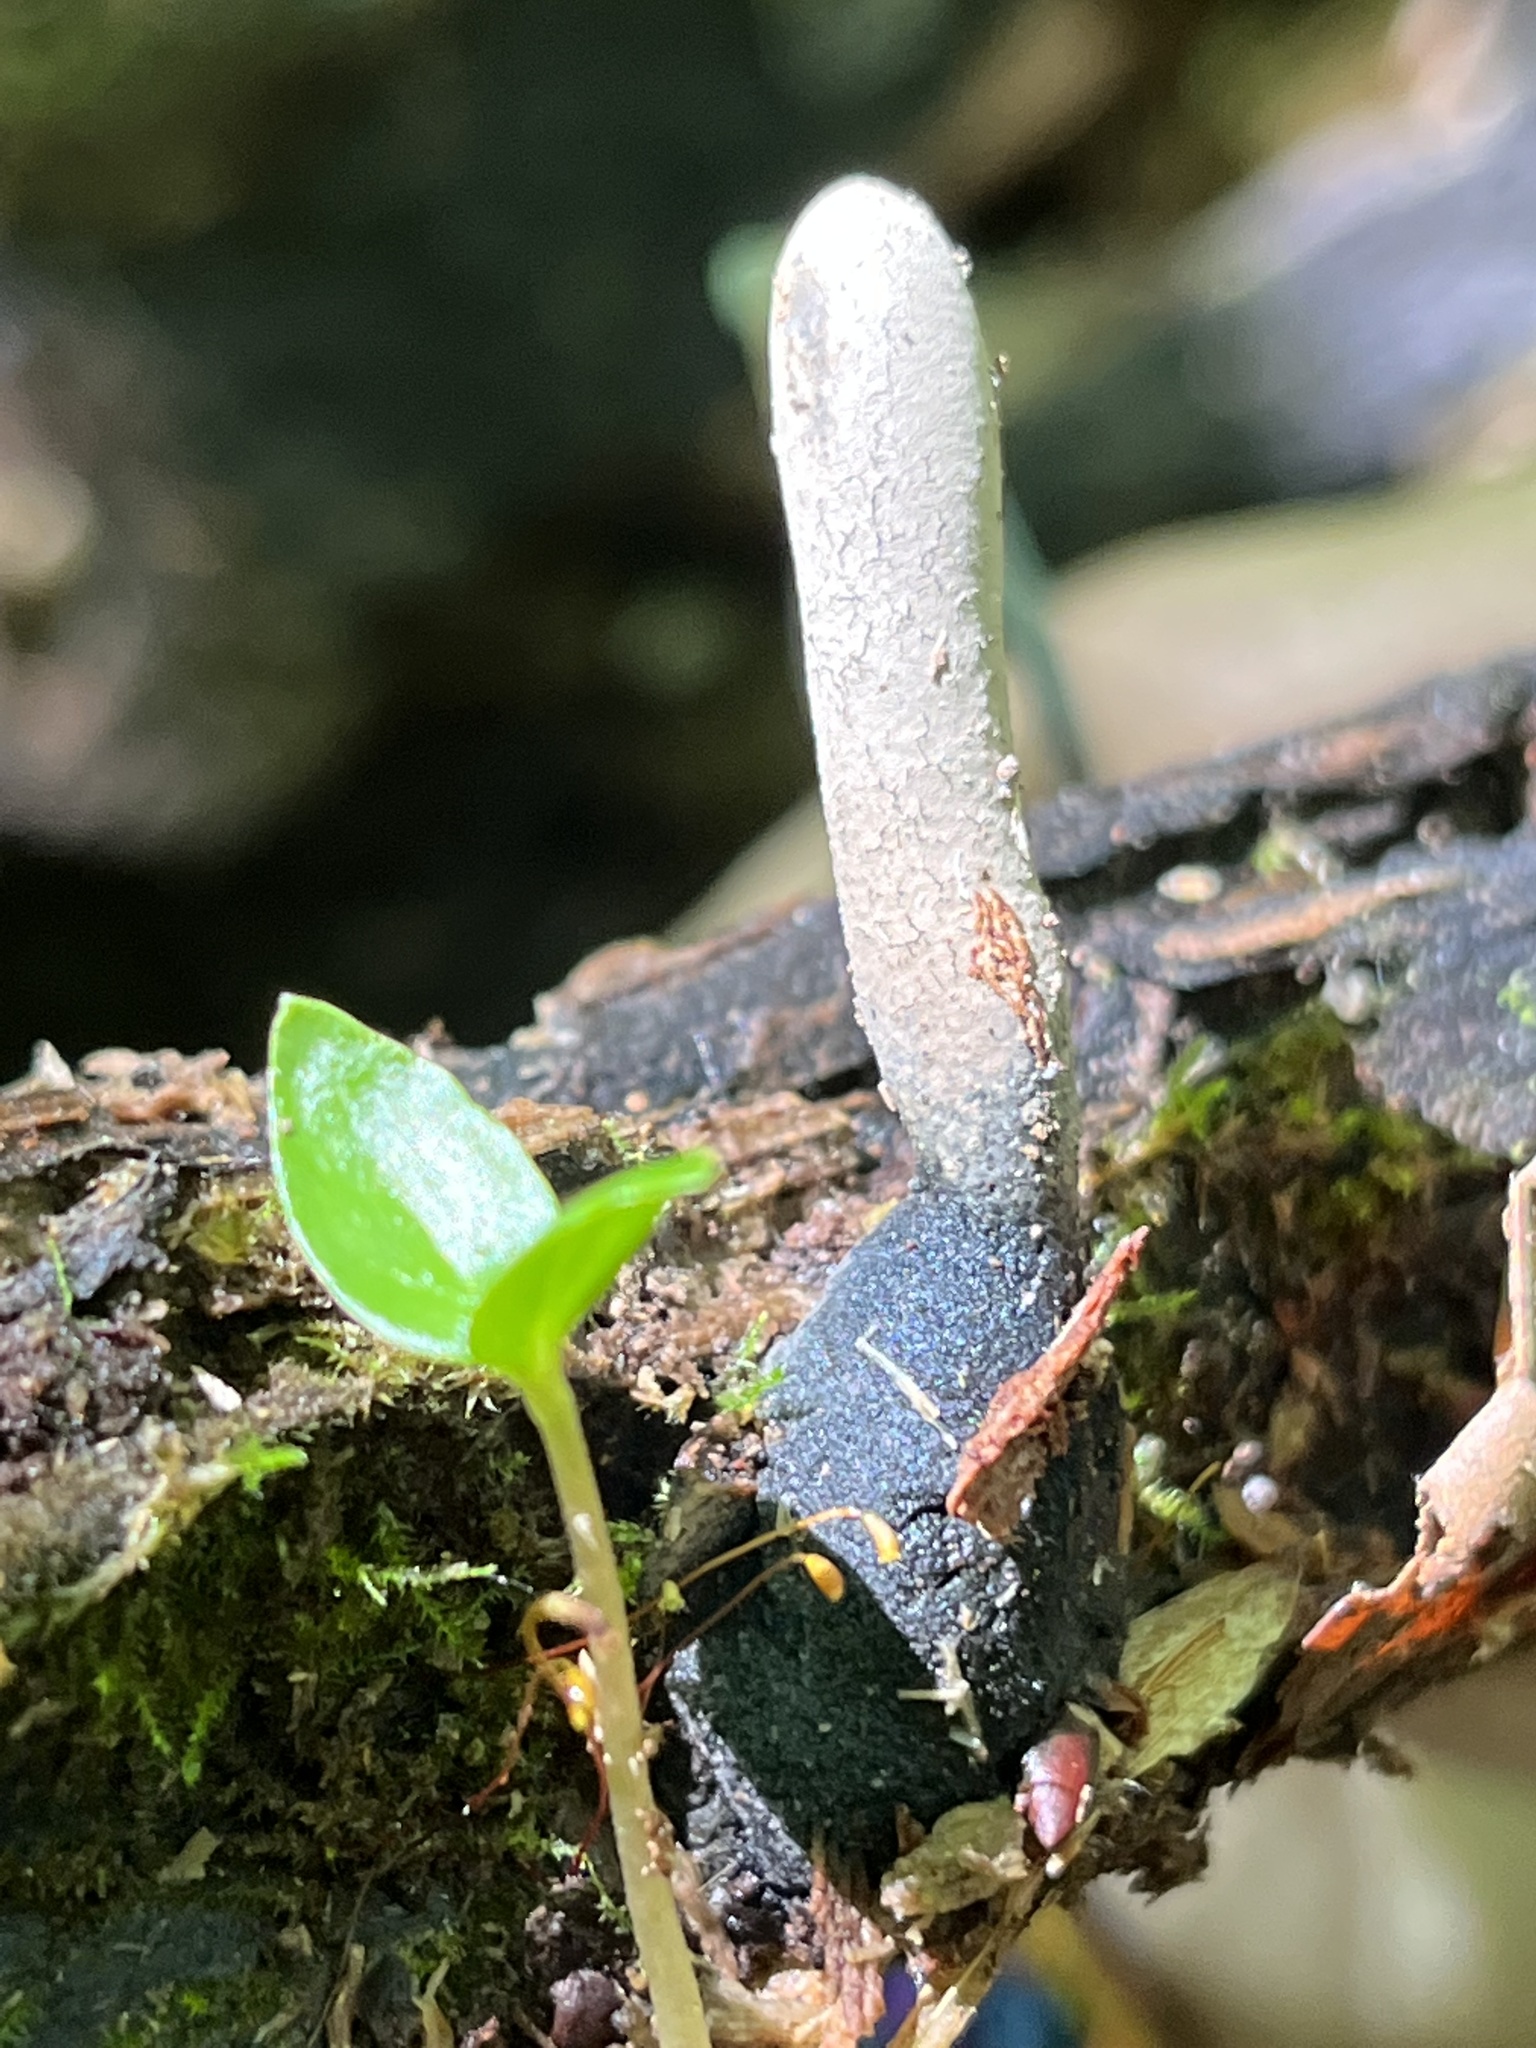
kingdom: Fungi
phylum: Ascomycota
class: Sordariomycetes
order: Xylariales
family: Xylariaceae
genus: Xylaria
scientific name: Xylaria polymorpha
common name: Dead man's fingers
